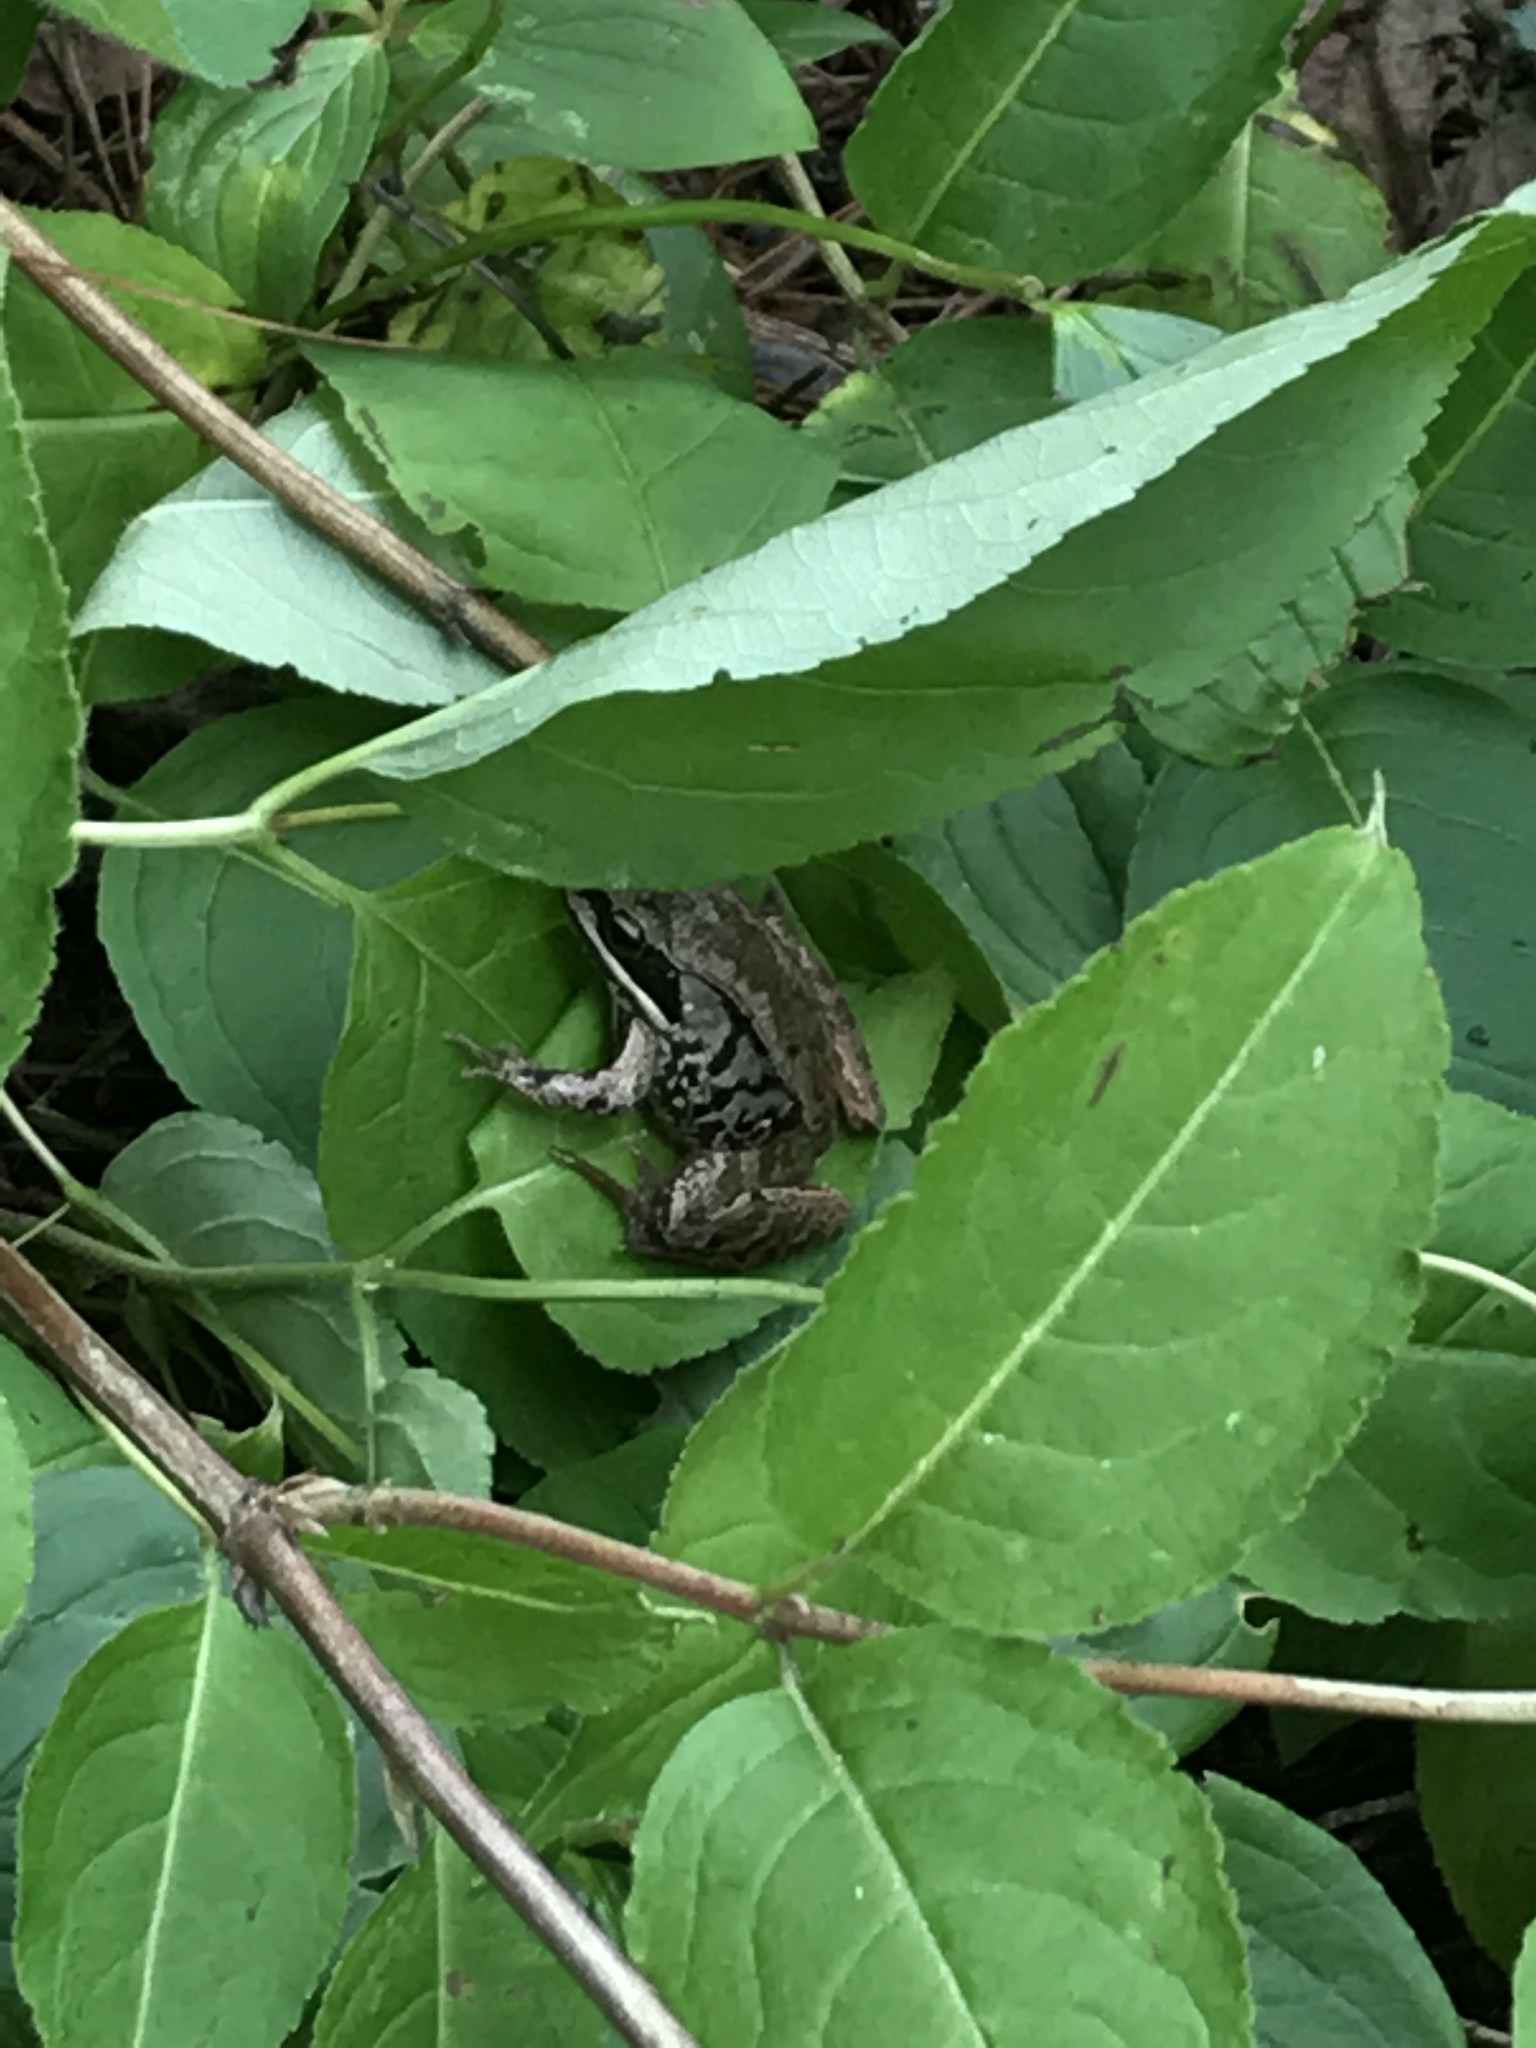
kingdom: Animalia
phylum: Chordata
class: Amphibia
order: Anura
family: Ranidae
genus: Lithobates
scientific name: Lithobates sylvaticus
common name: Wood frog
